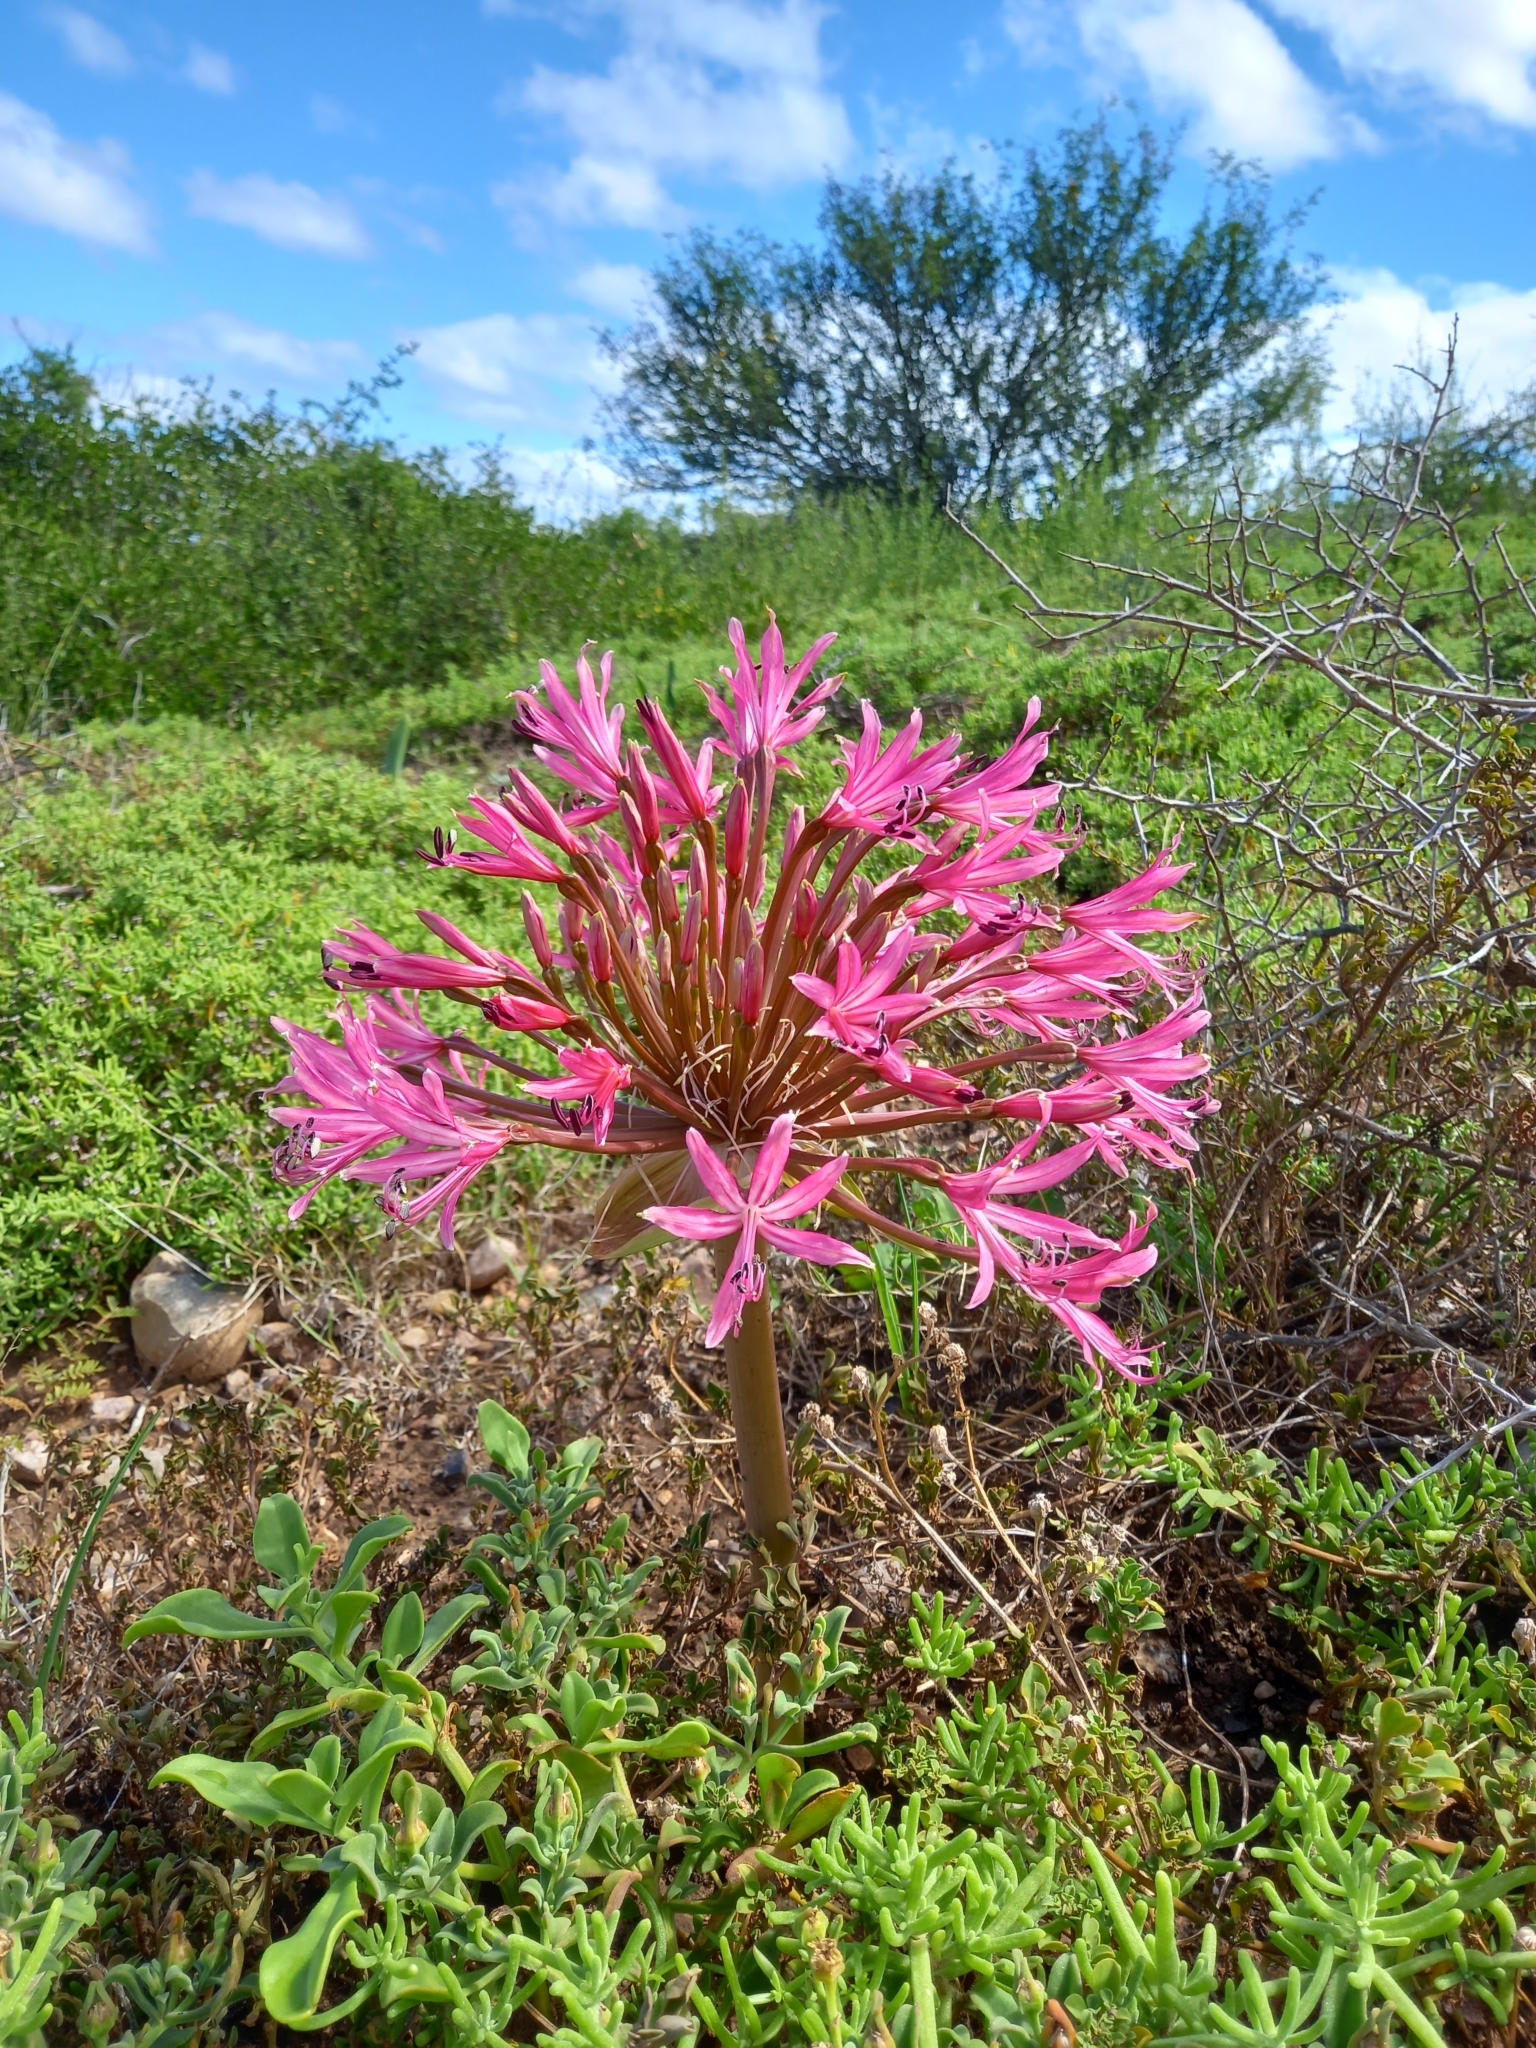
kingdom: Plantae
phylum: Tracheophyta
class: Liliopsida
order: Asparagales
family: Amaryllidaceae
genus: Brunsvigia
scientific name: Brunsvigia gregaria
